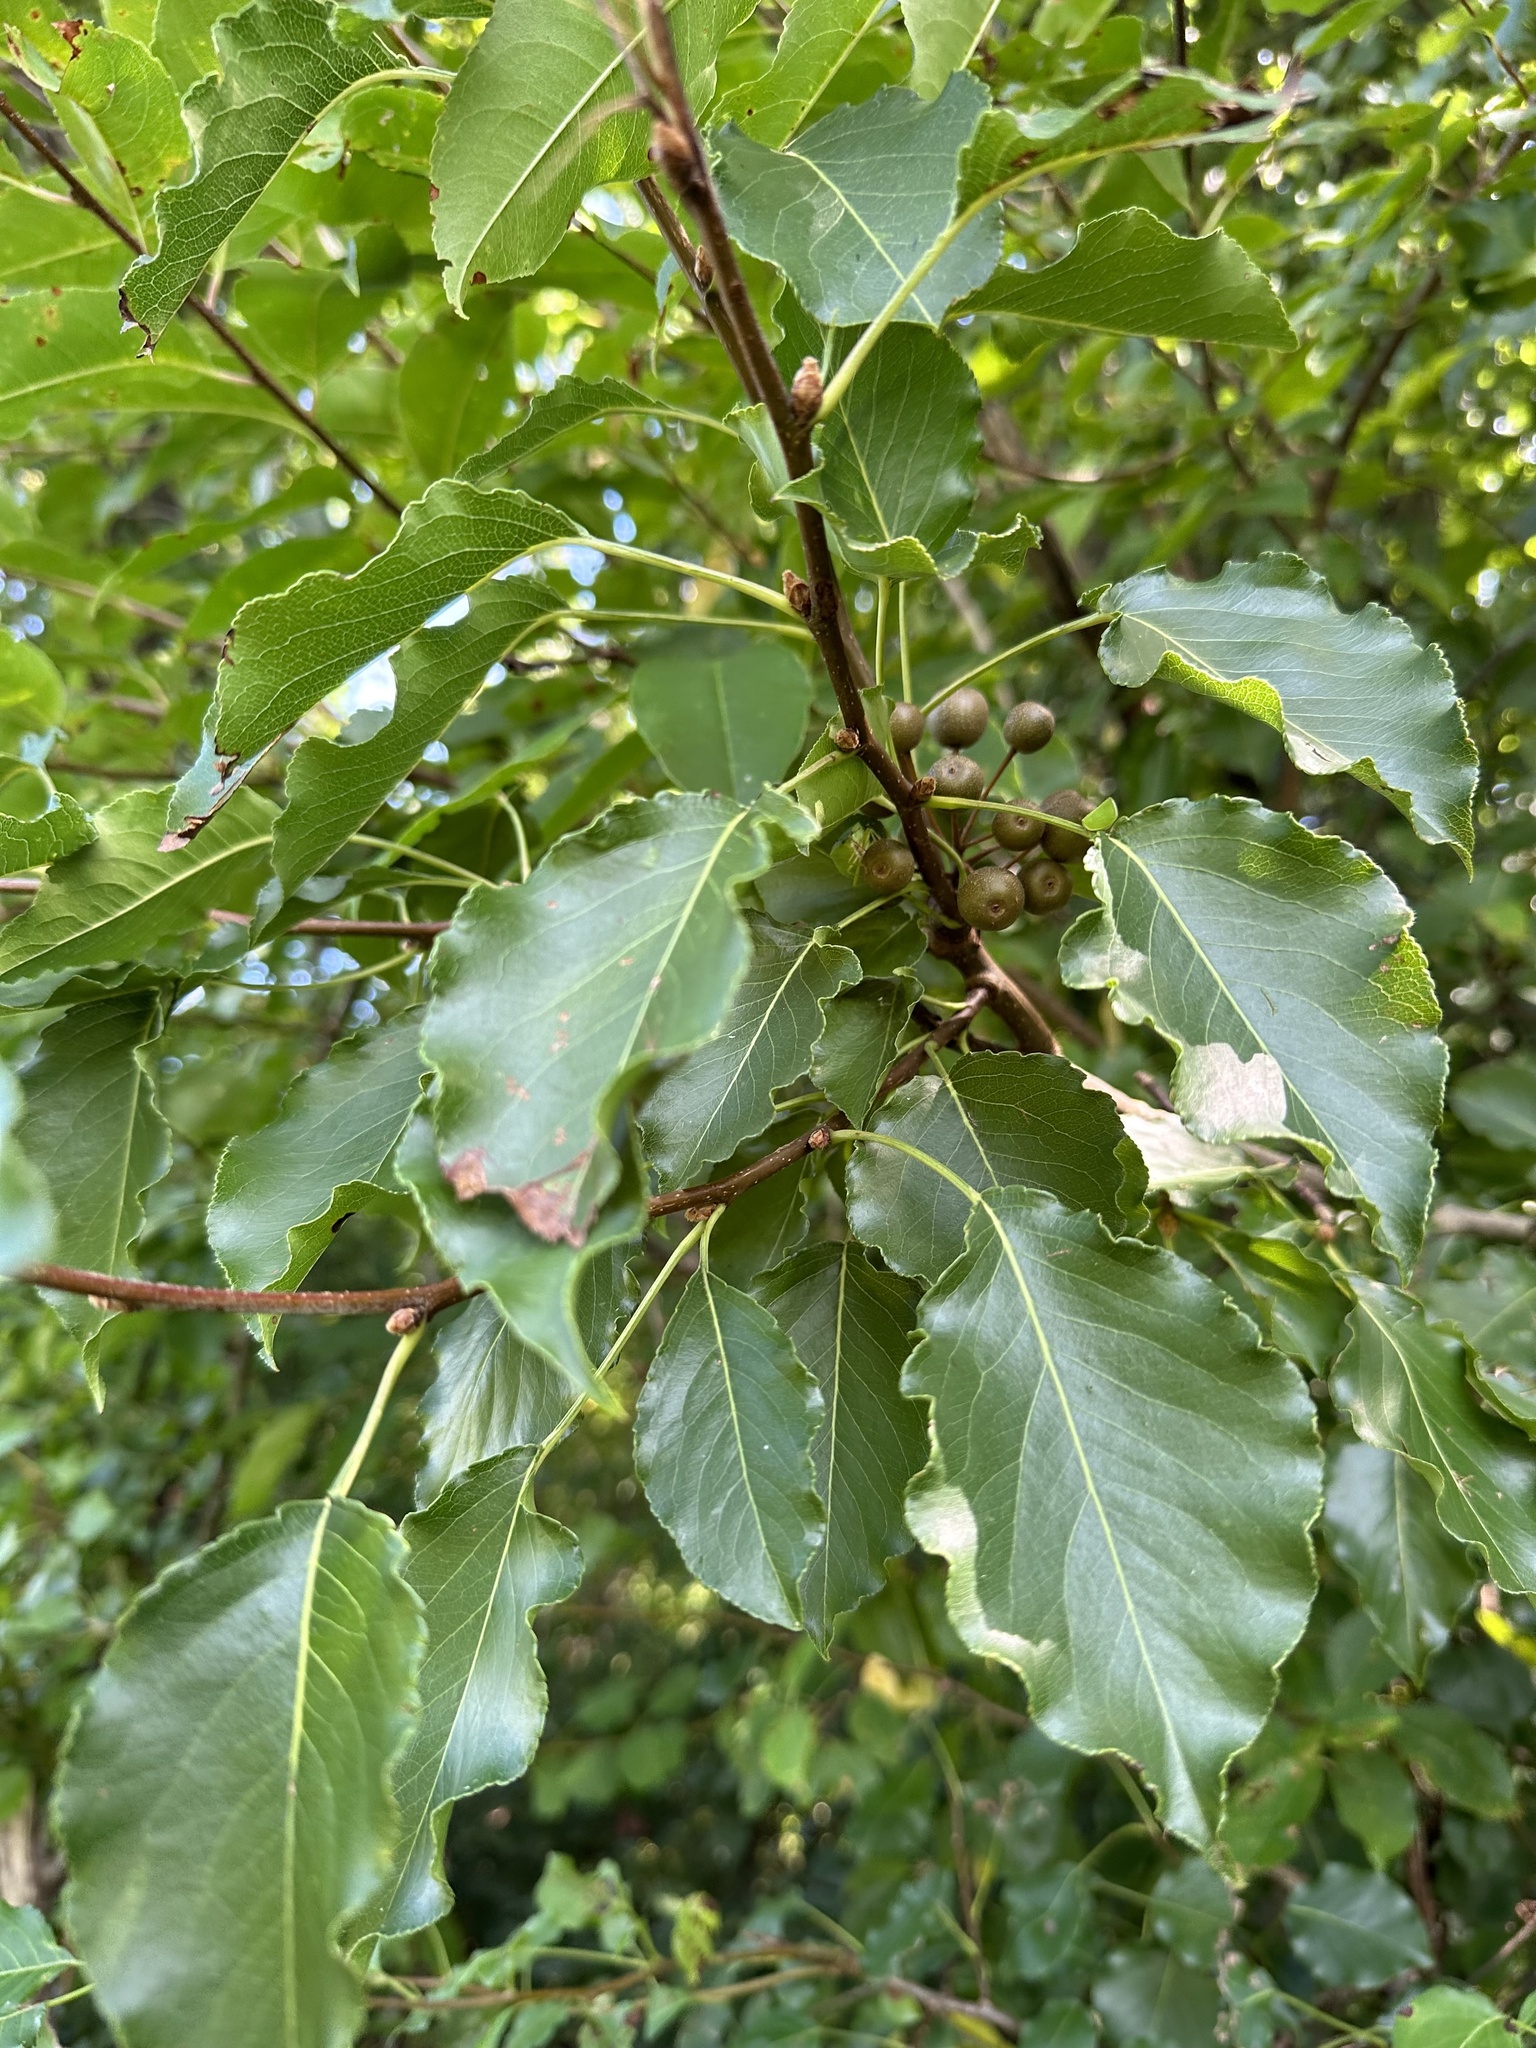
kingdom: Plantae
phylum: Tracheophyta
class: Magnoliopsida
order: Rosales
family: Rosaceae
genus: Pyrus
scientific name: Pyrus calleryana
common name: Callery pear
